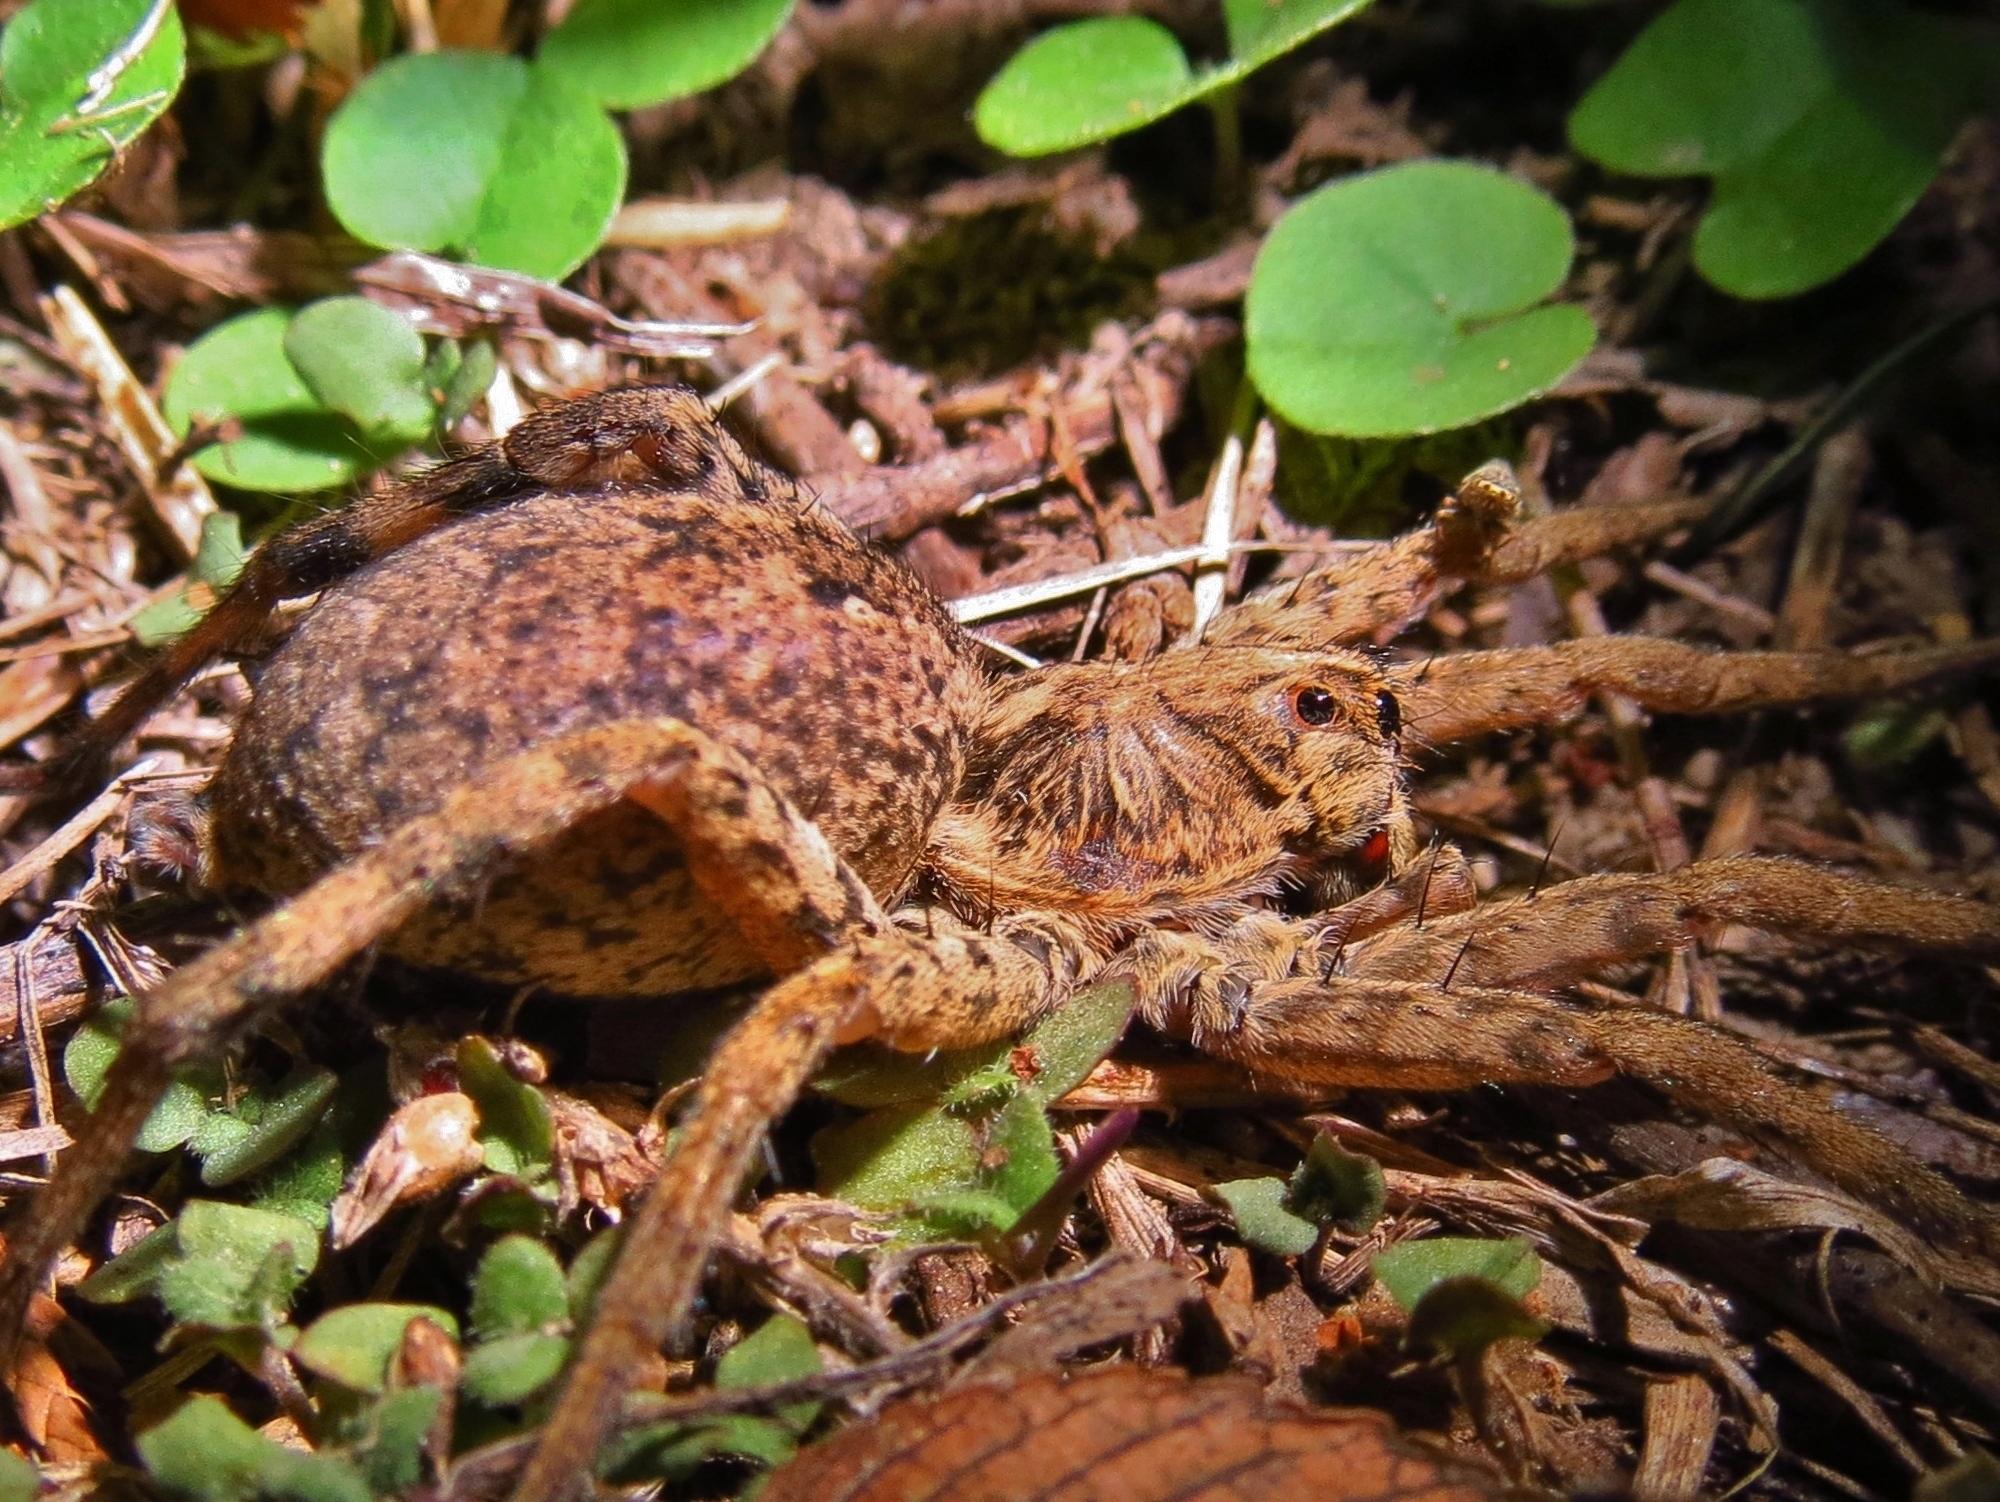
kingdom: Animalia
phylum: Arthropoda
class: Arachnida
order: Araneae
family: Lycosidae
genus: Hogna
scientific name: Hogna antelucana
